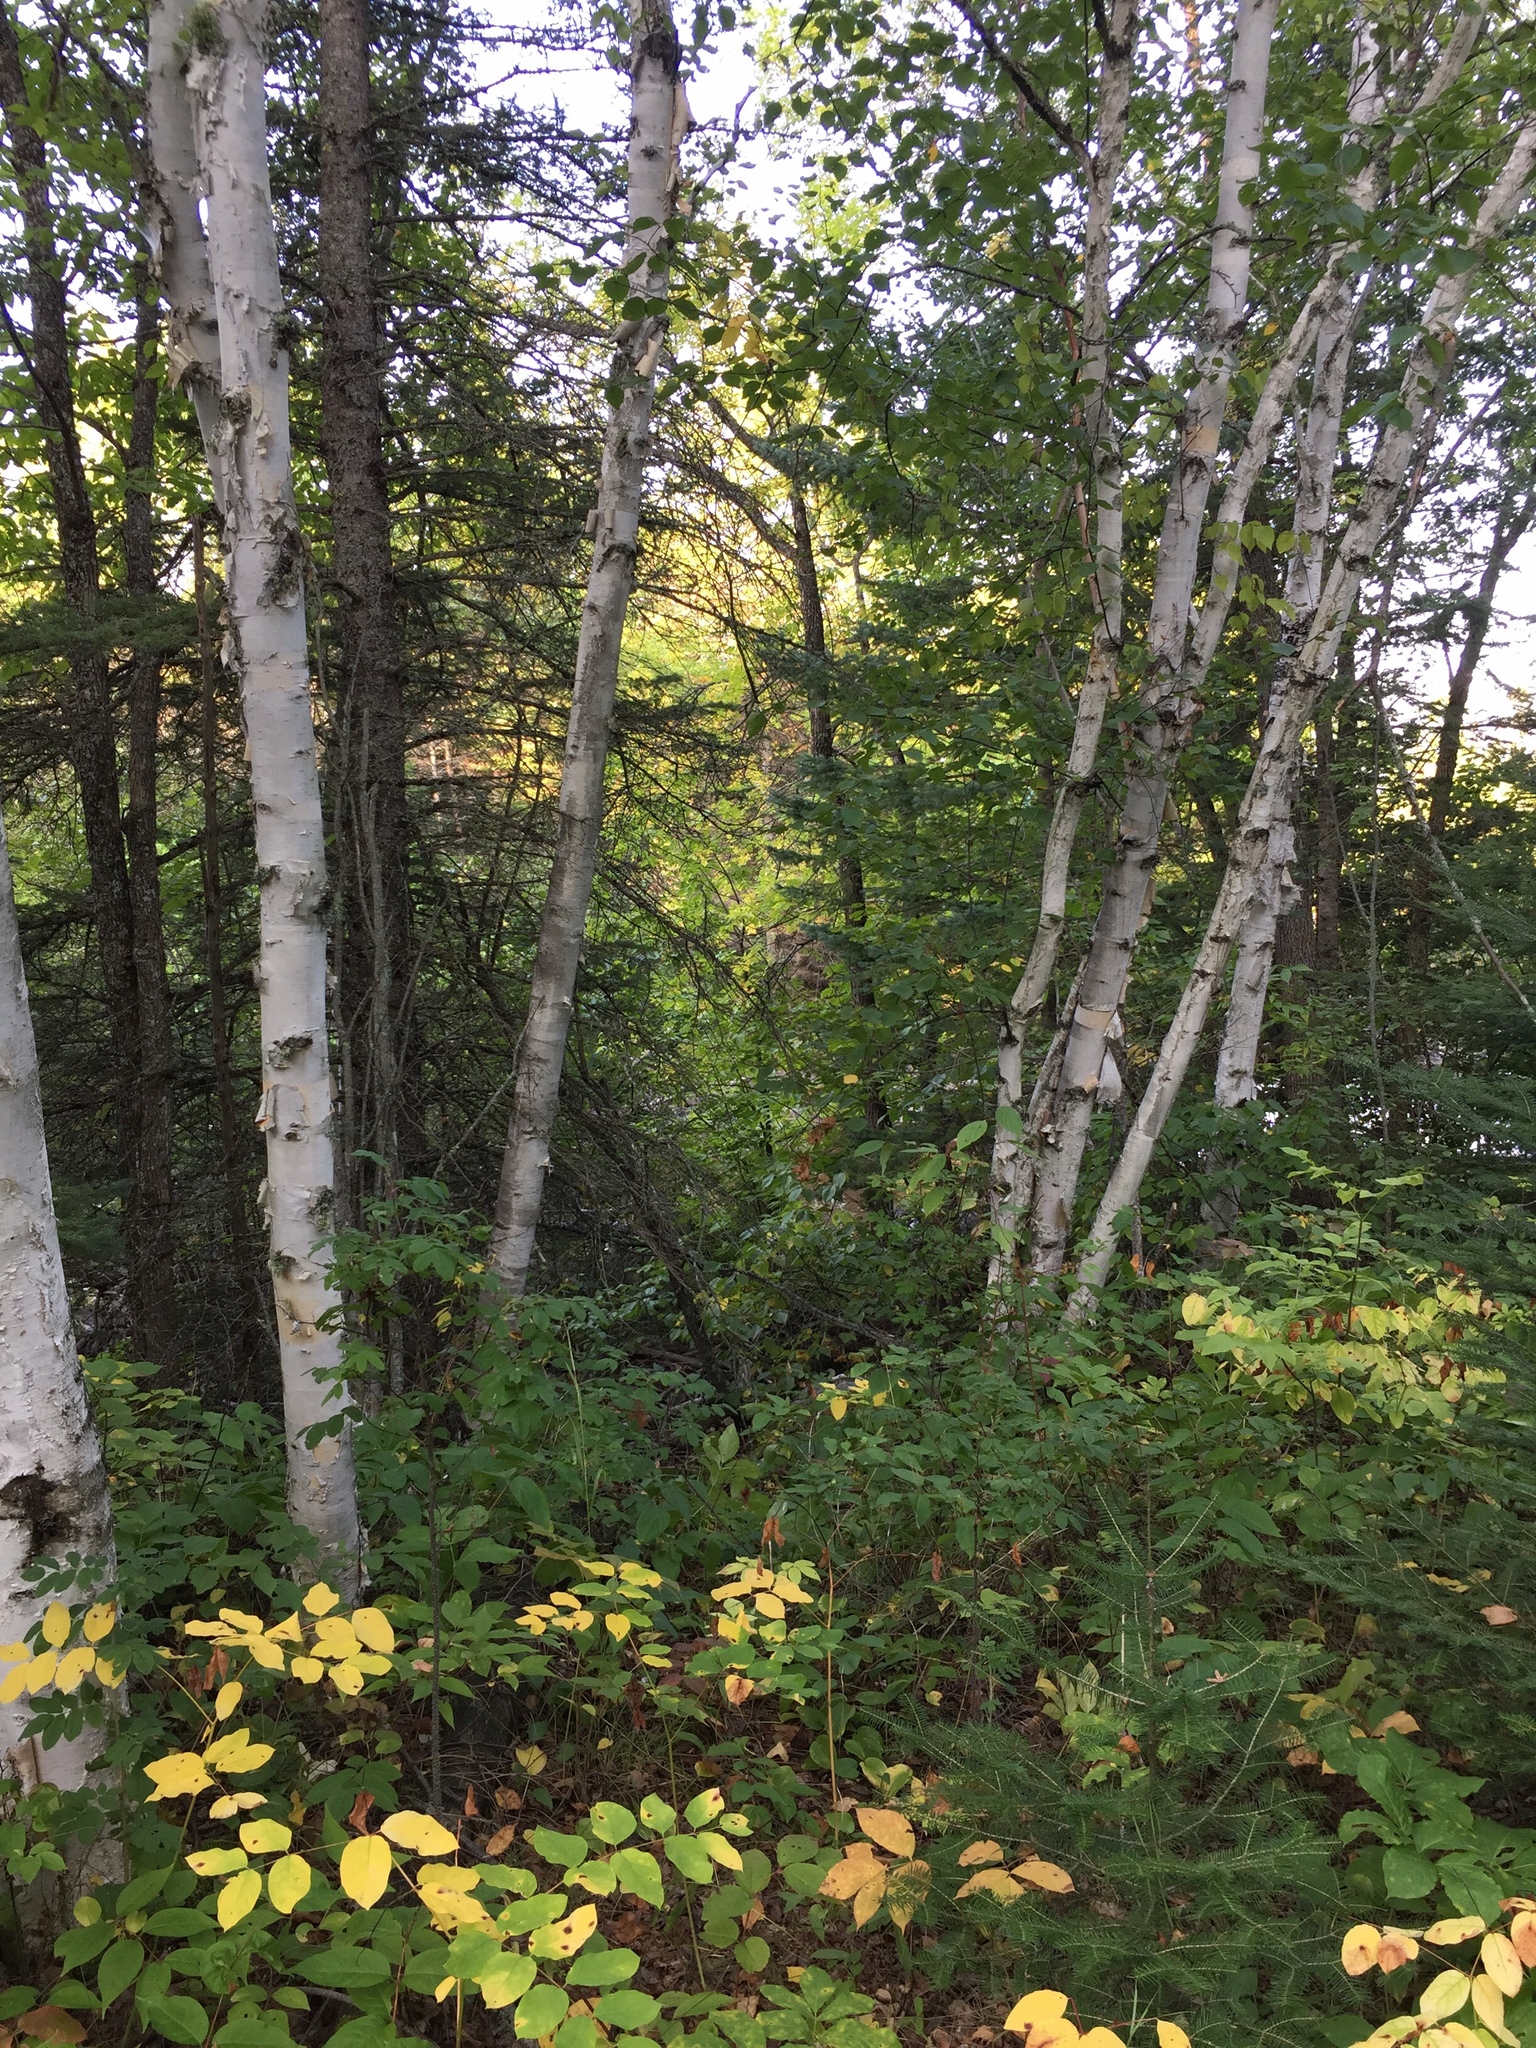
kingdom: Plantae
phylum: Tracheophyta
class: Magnoliopsida
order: Fagales
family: Betulaceae
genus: Betula
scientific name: Betula papyrifera
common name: Paper birch
